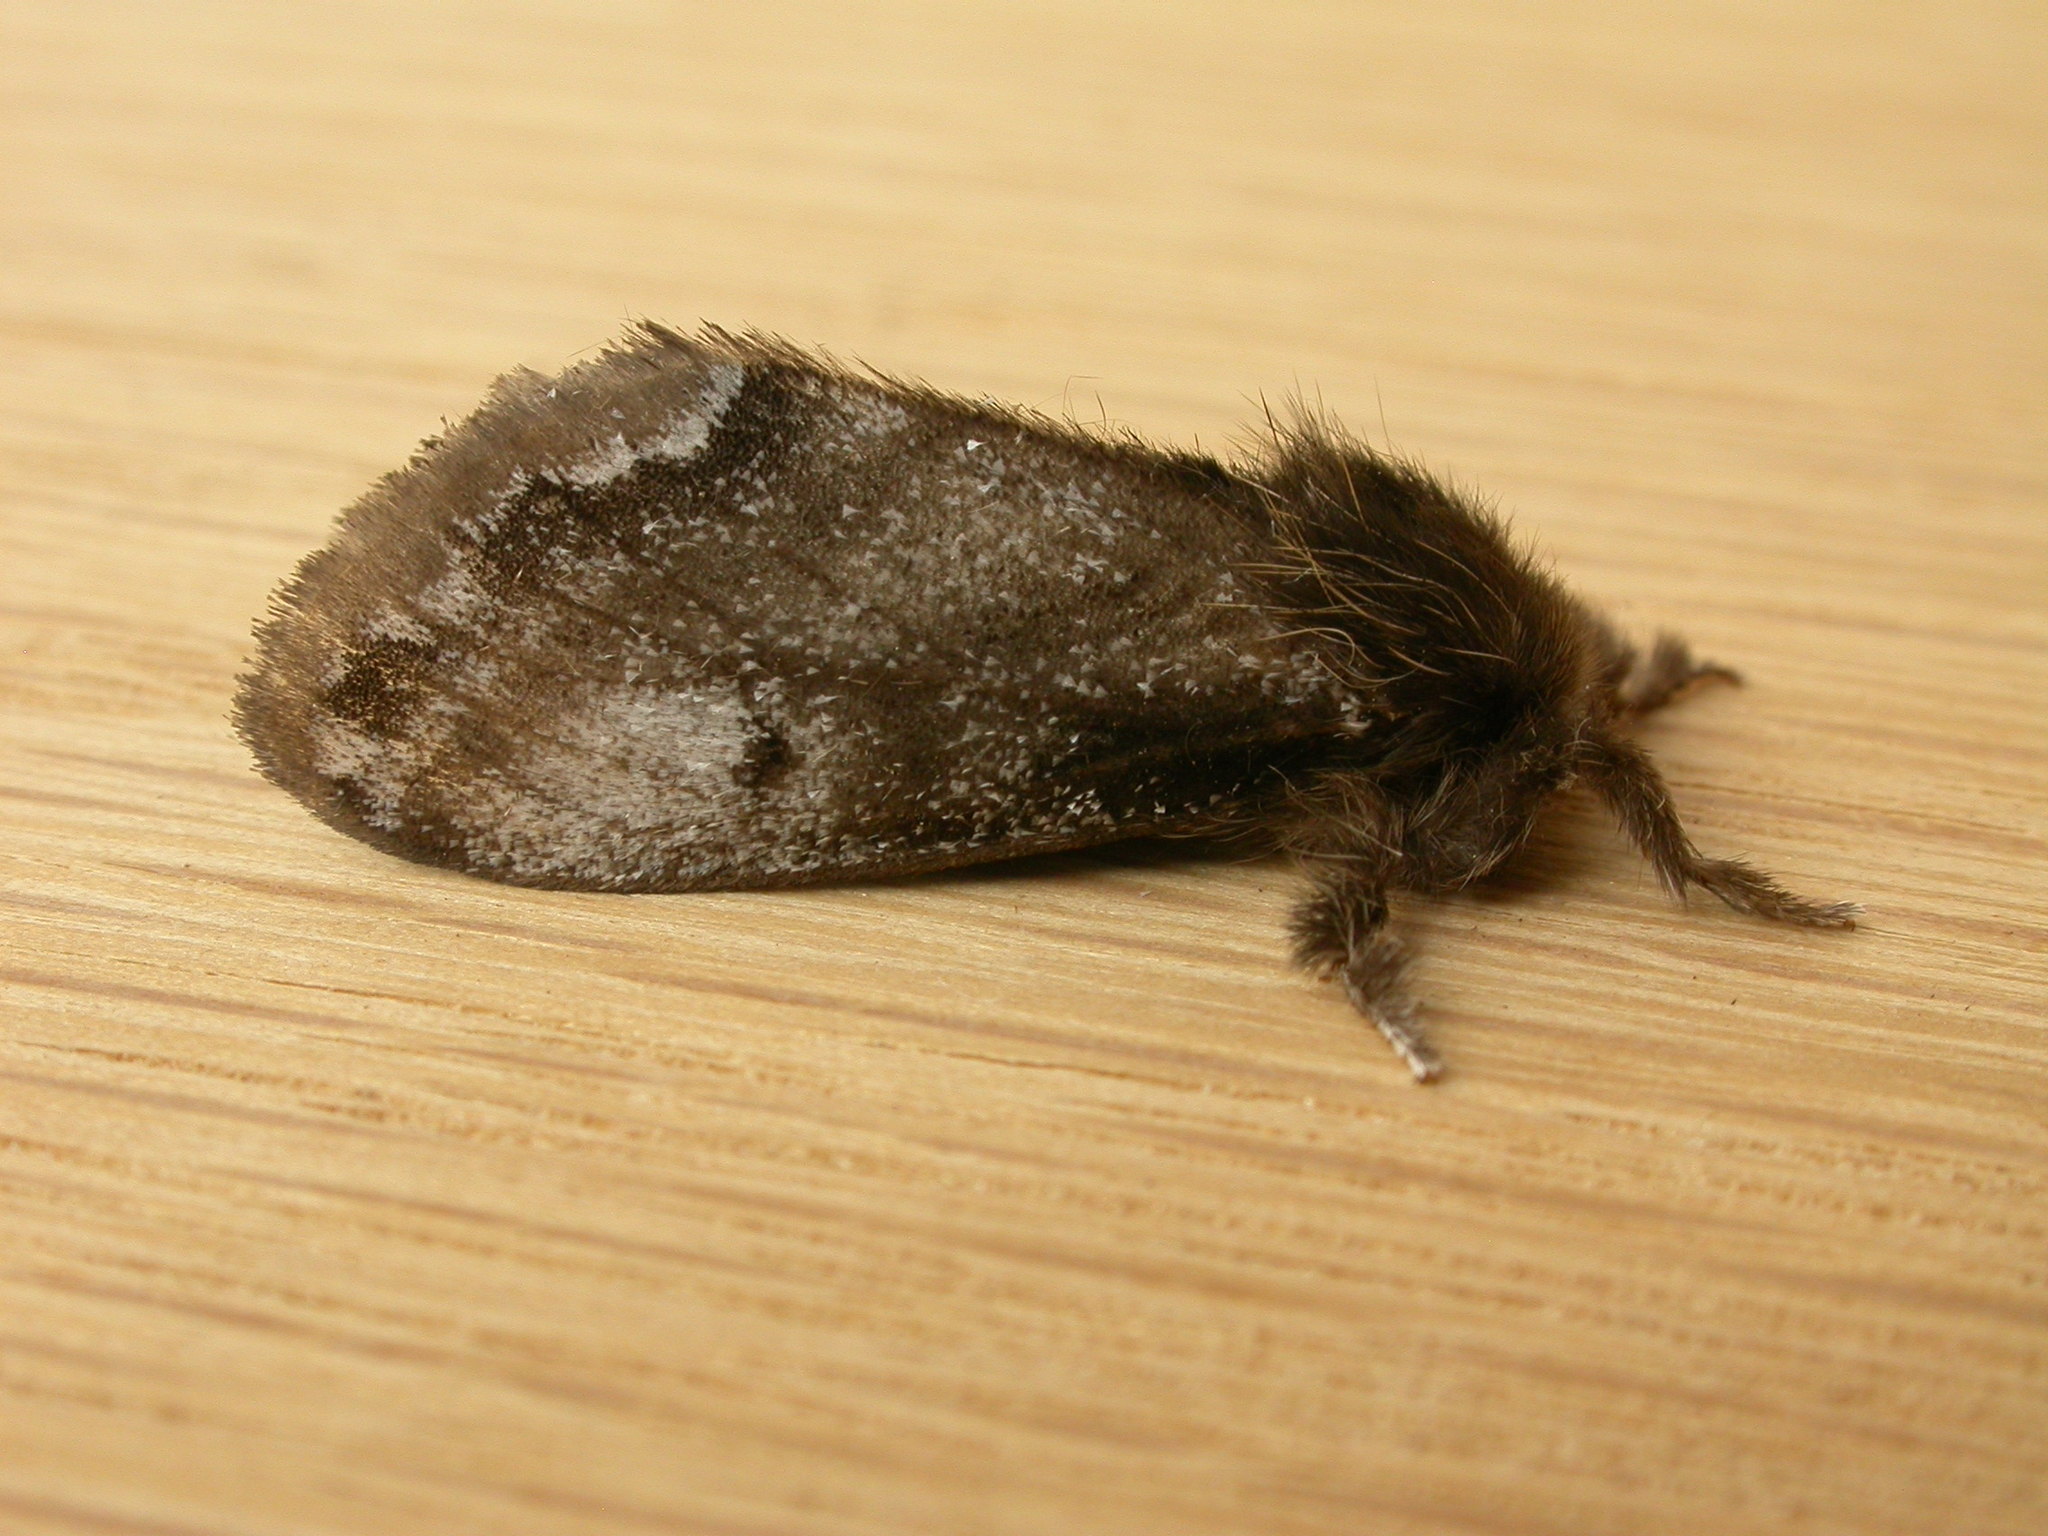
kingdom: Animalia
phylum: Arthropoda
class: Insecta
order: Lepidoptera
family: Erebidae
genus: Euproctis
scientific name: Euproctis
